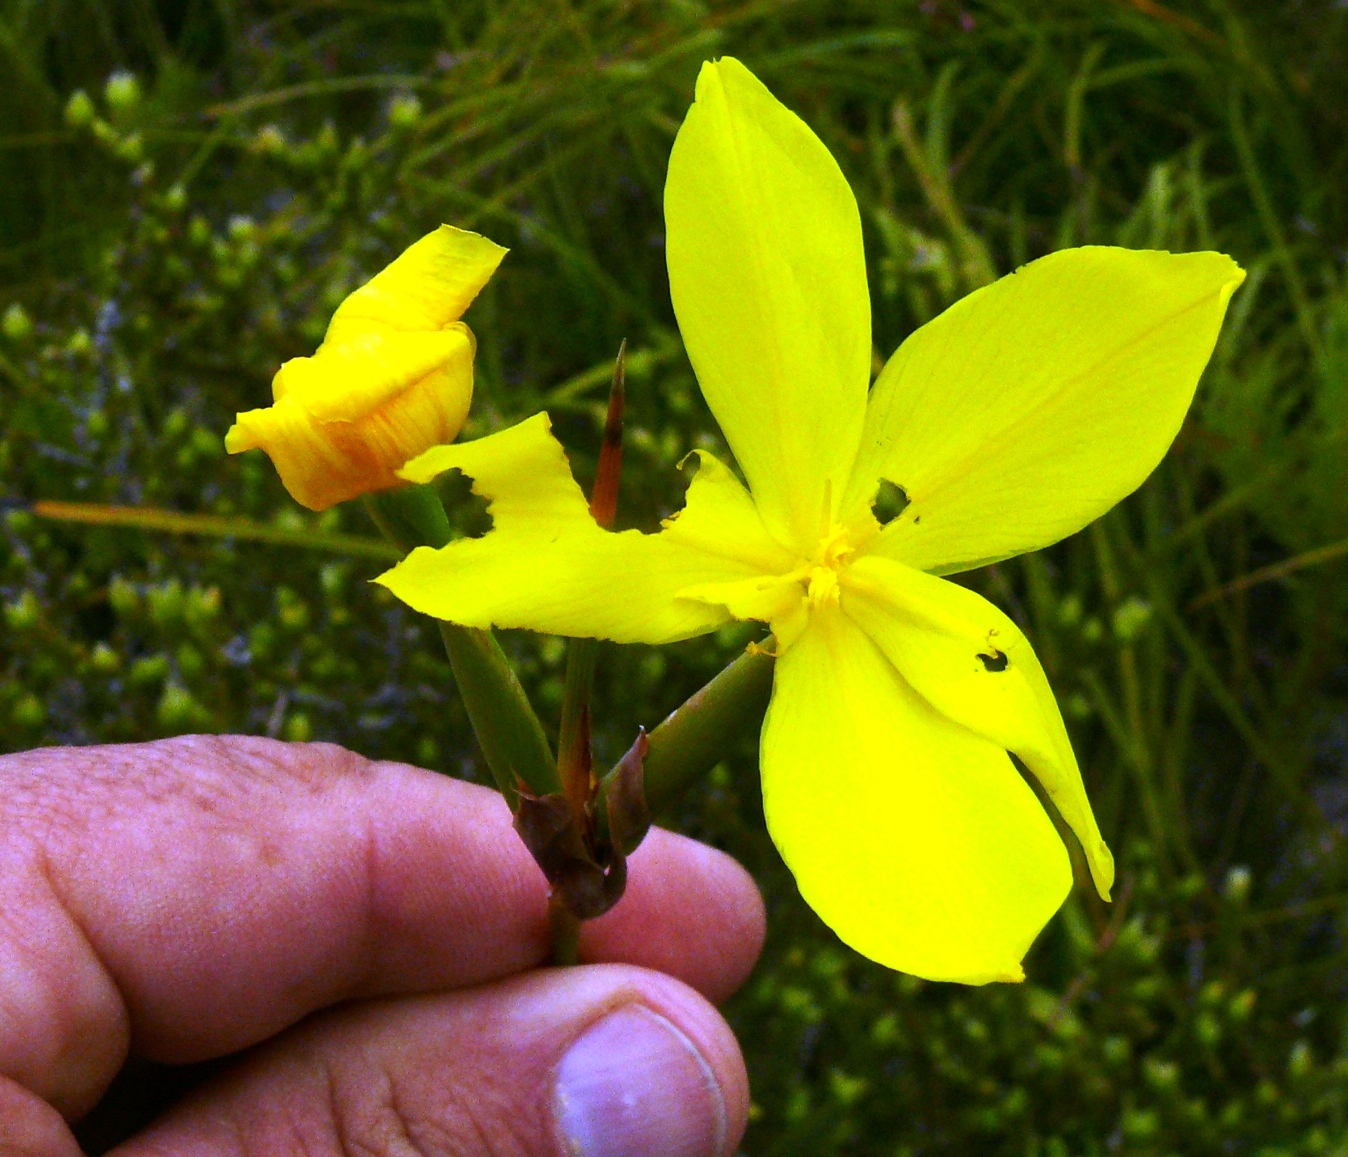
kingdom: Plantae
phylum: Tracheophyta
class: Liliopsida
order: Asparagales
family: Iridaceae
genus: Bobartia
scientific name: Bobartia indica
